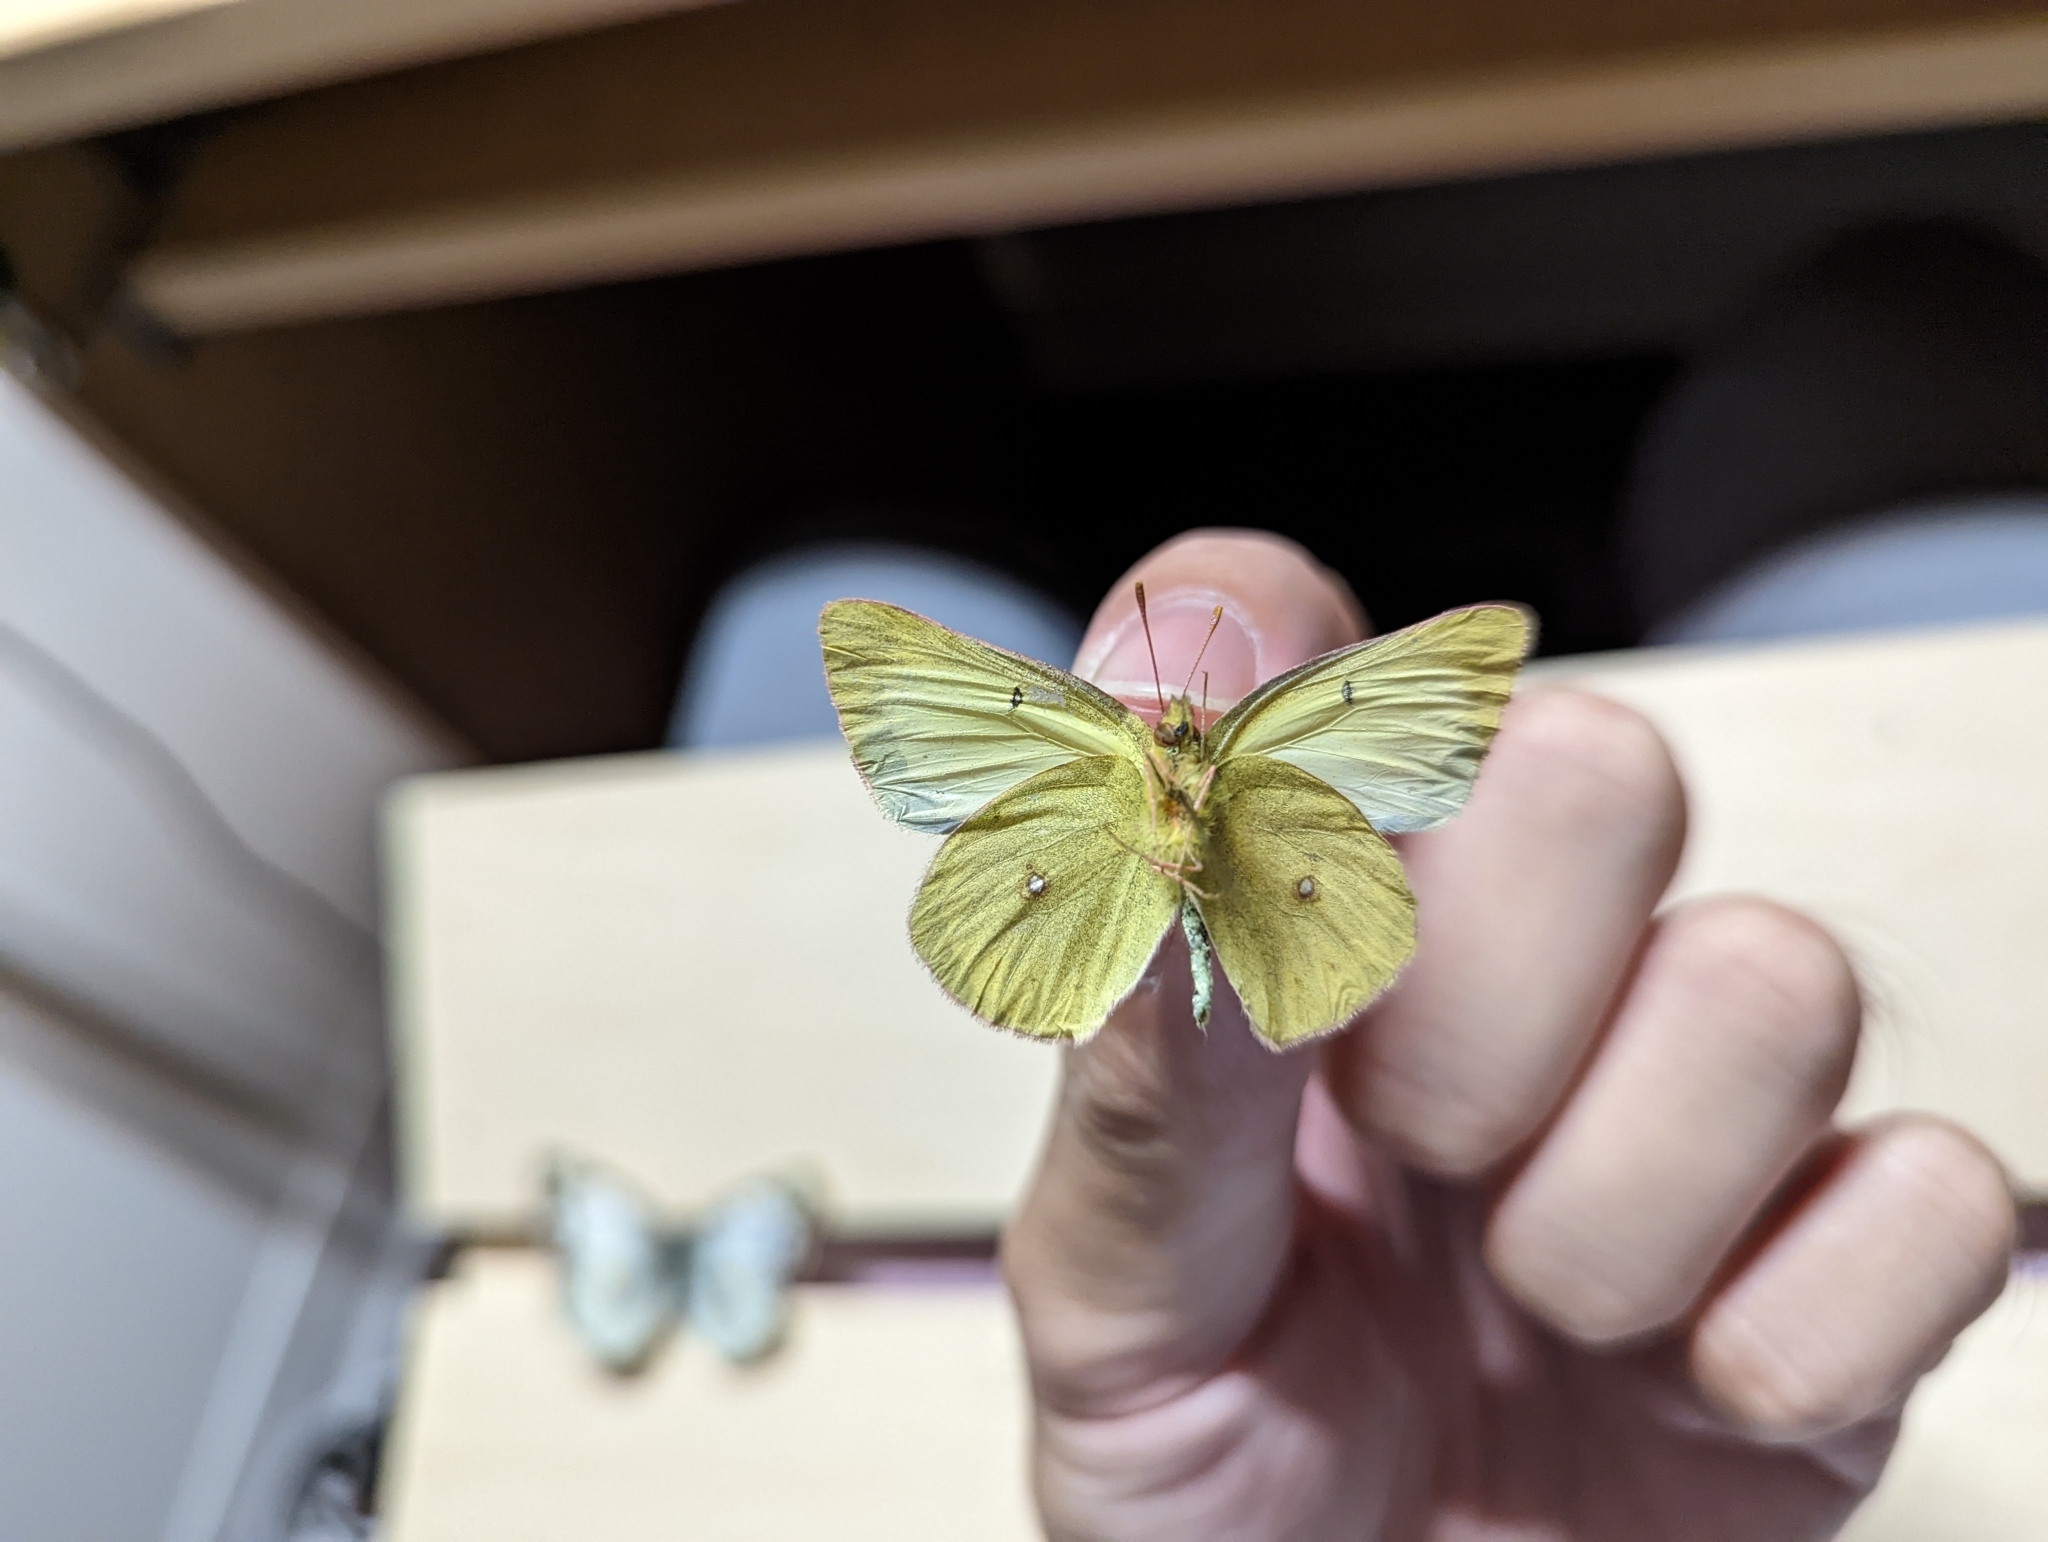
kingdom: Animalia
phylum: Arthropoda
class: Insecta
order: Lepidoptera
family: Pieridae
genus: Colias
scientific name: Colias philodice
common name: Clouded sulphur
